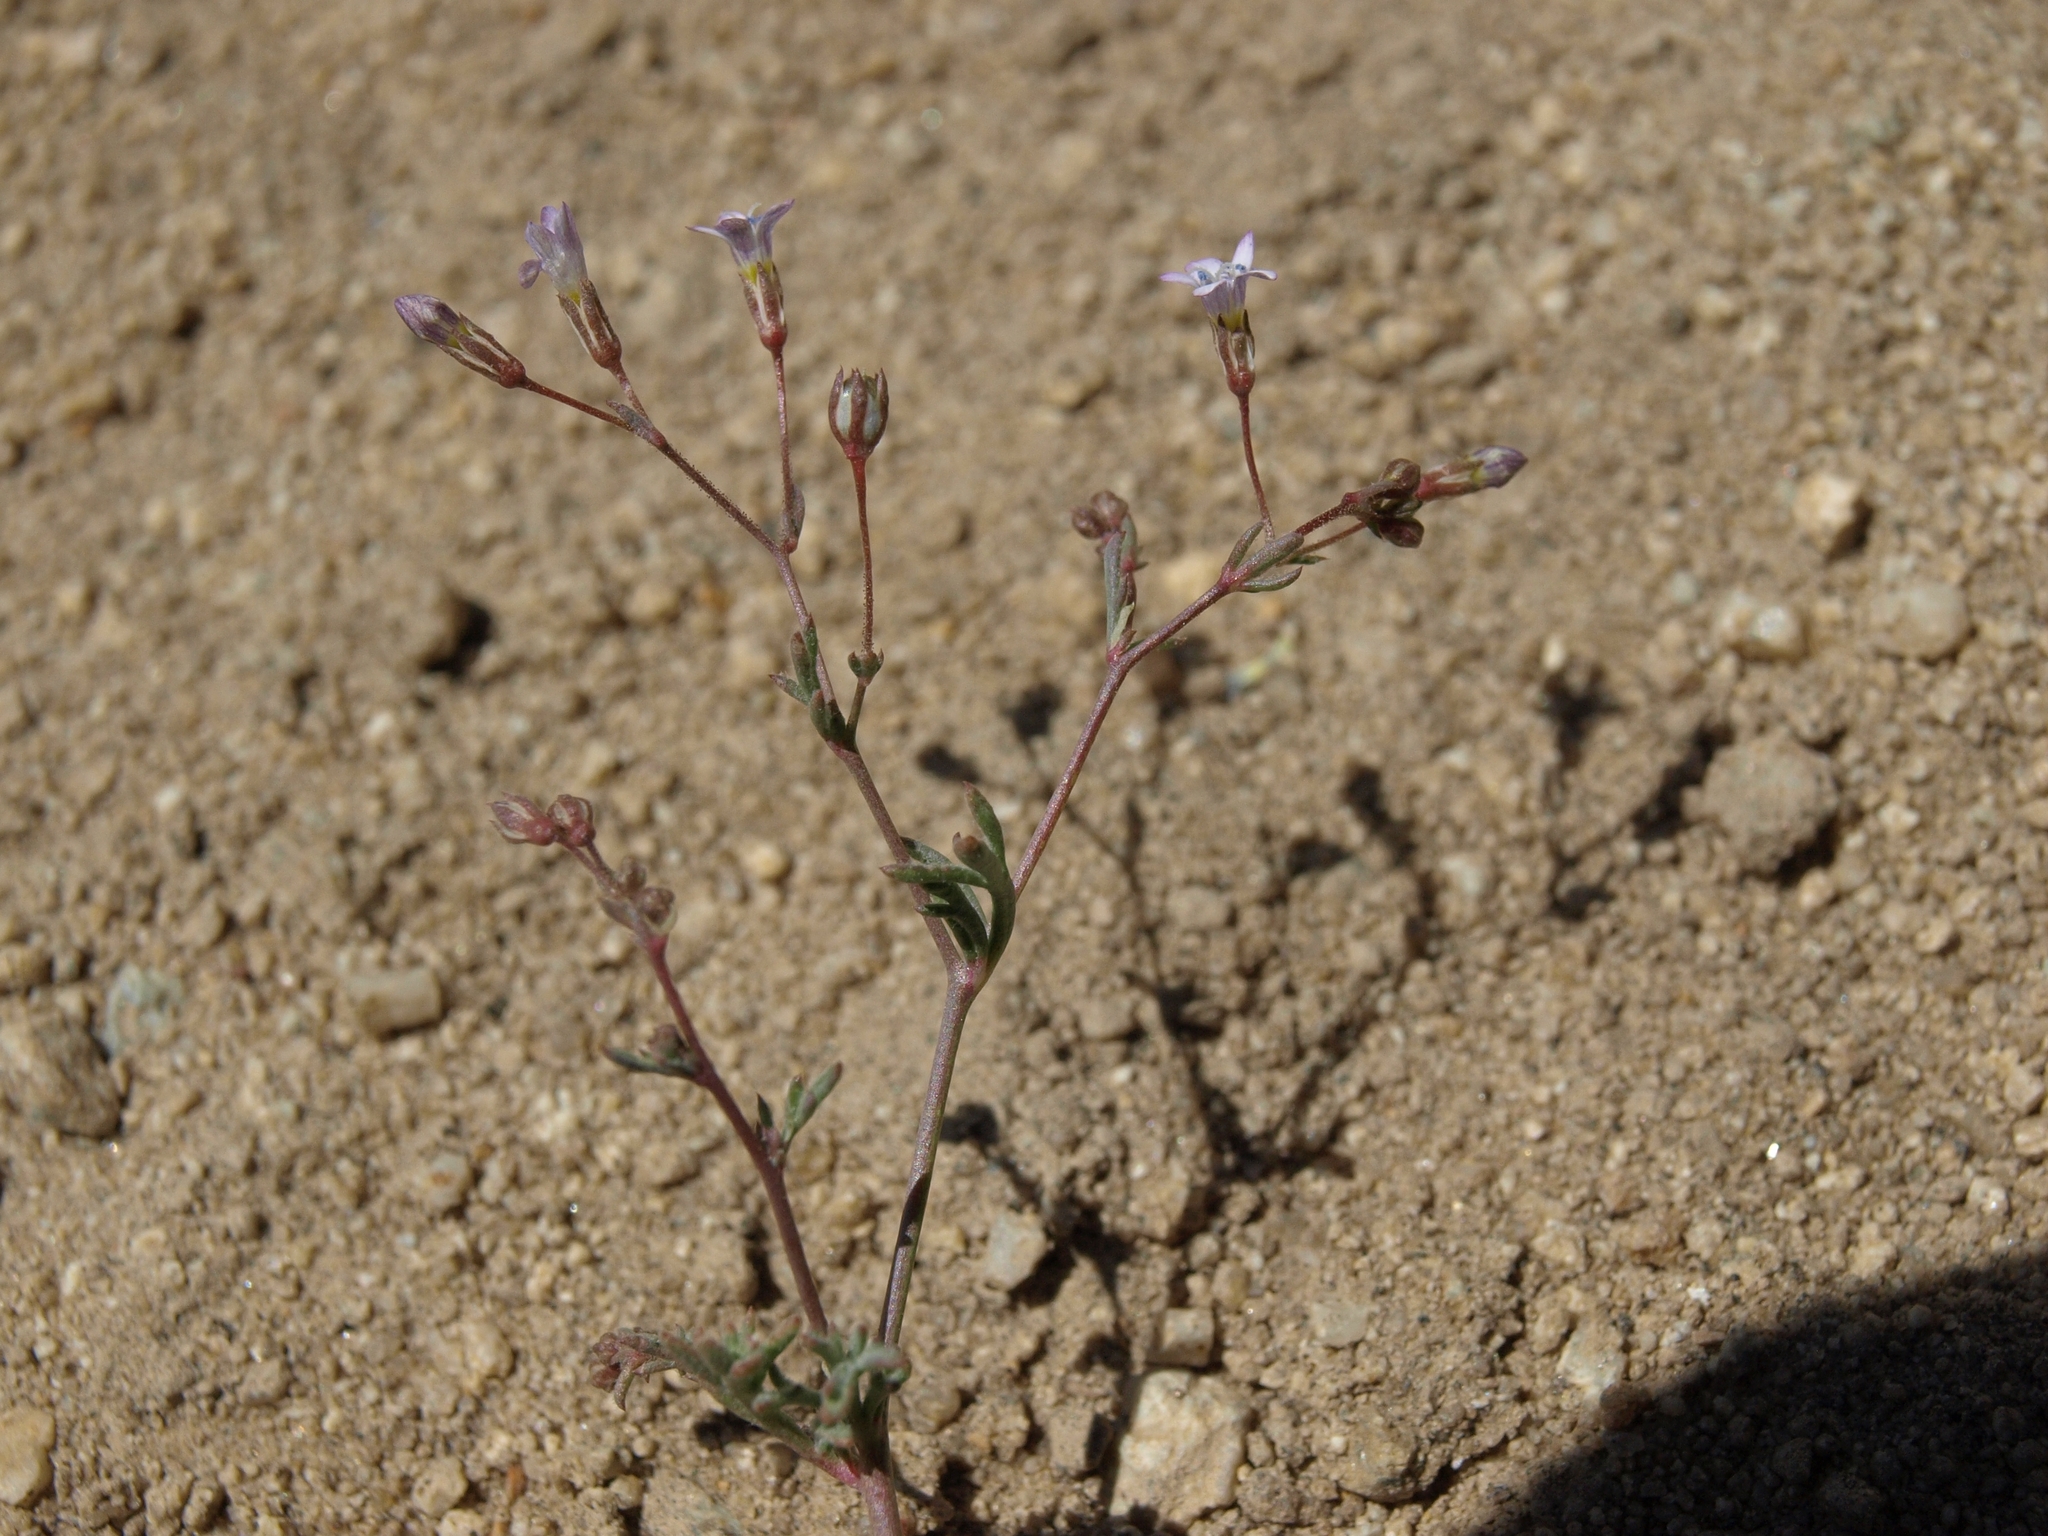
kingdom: Plantae
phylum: Tracheophyta
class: Magnoliopsida
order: Ericales
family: Polemoniaceae
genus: Gilia
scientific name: Gilia ochroleuca
